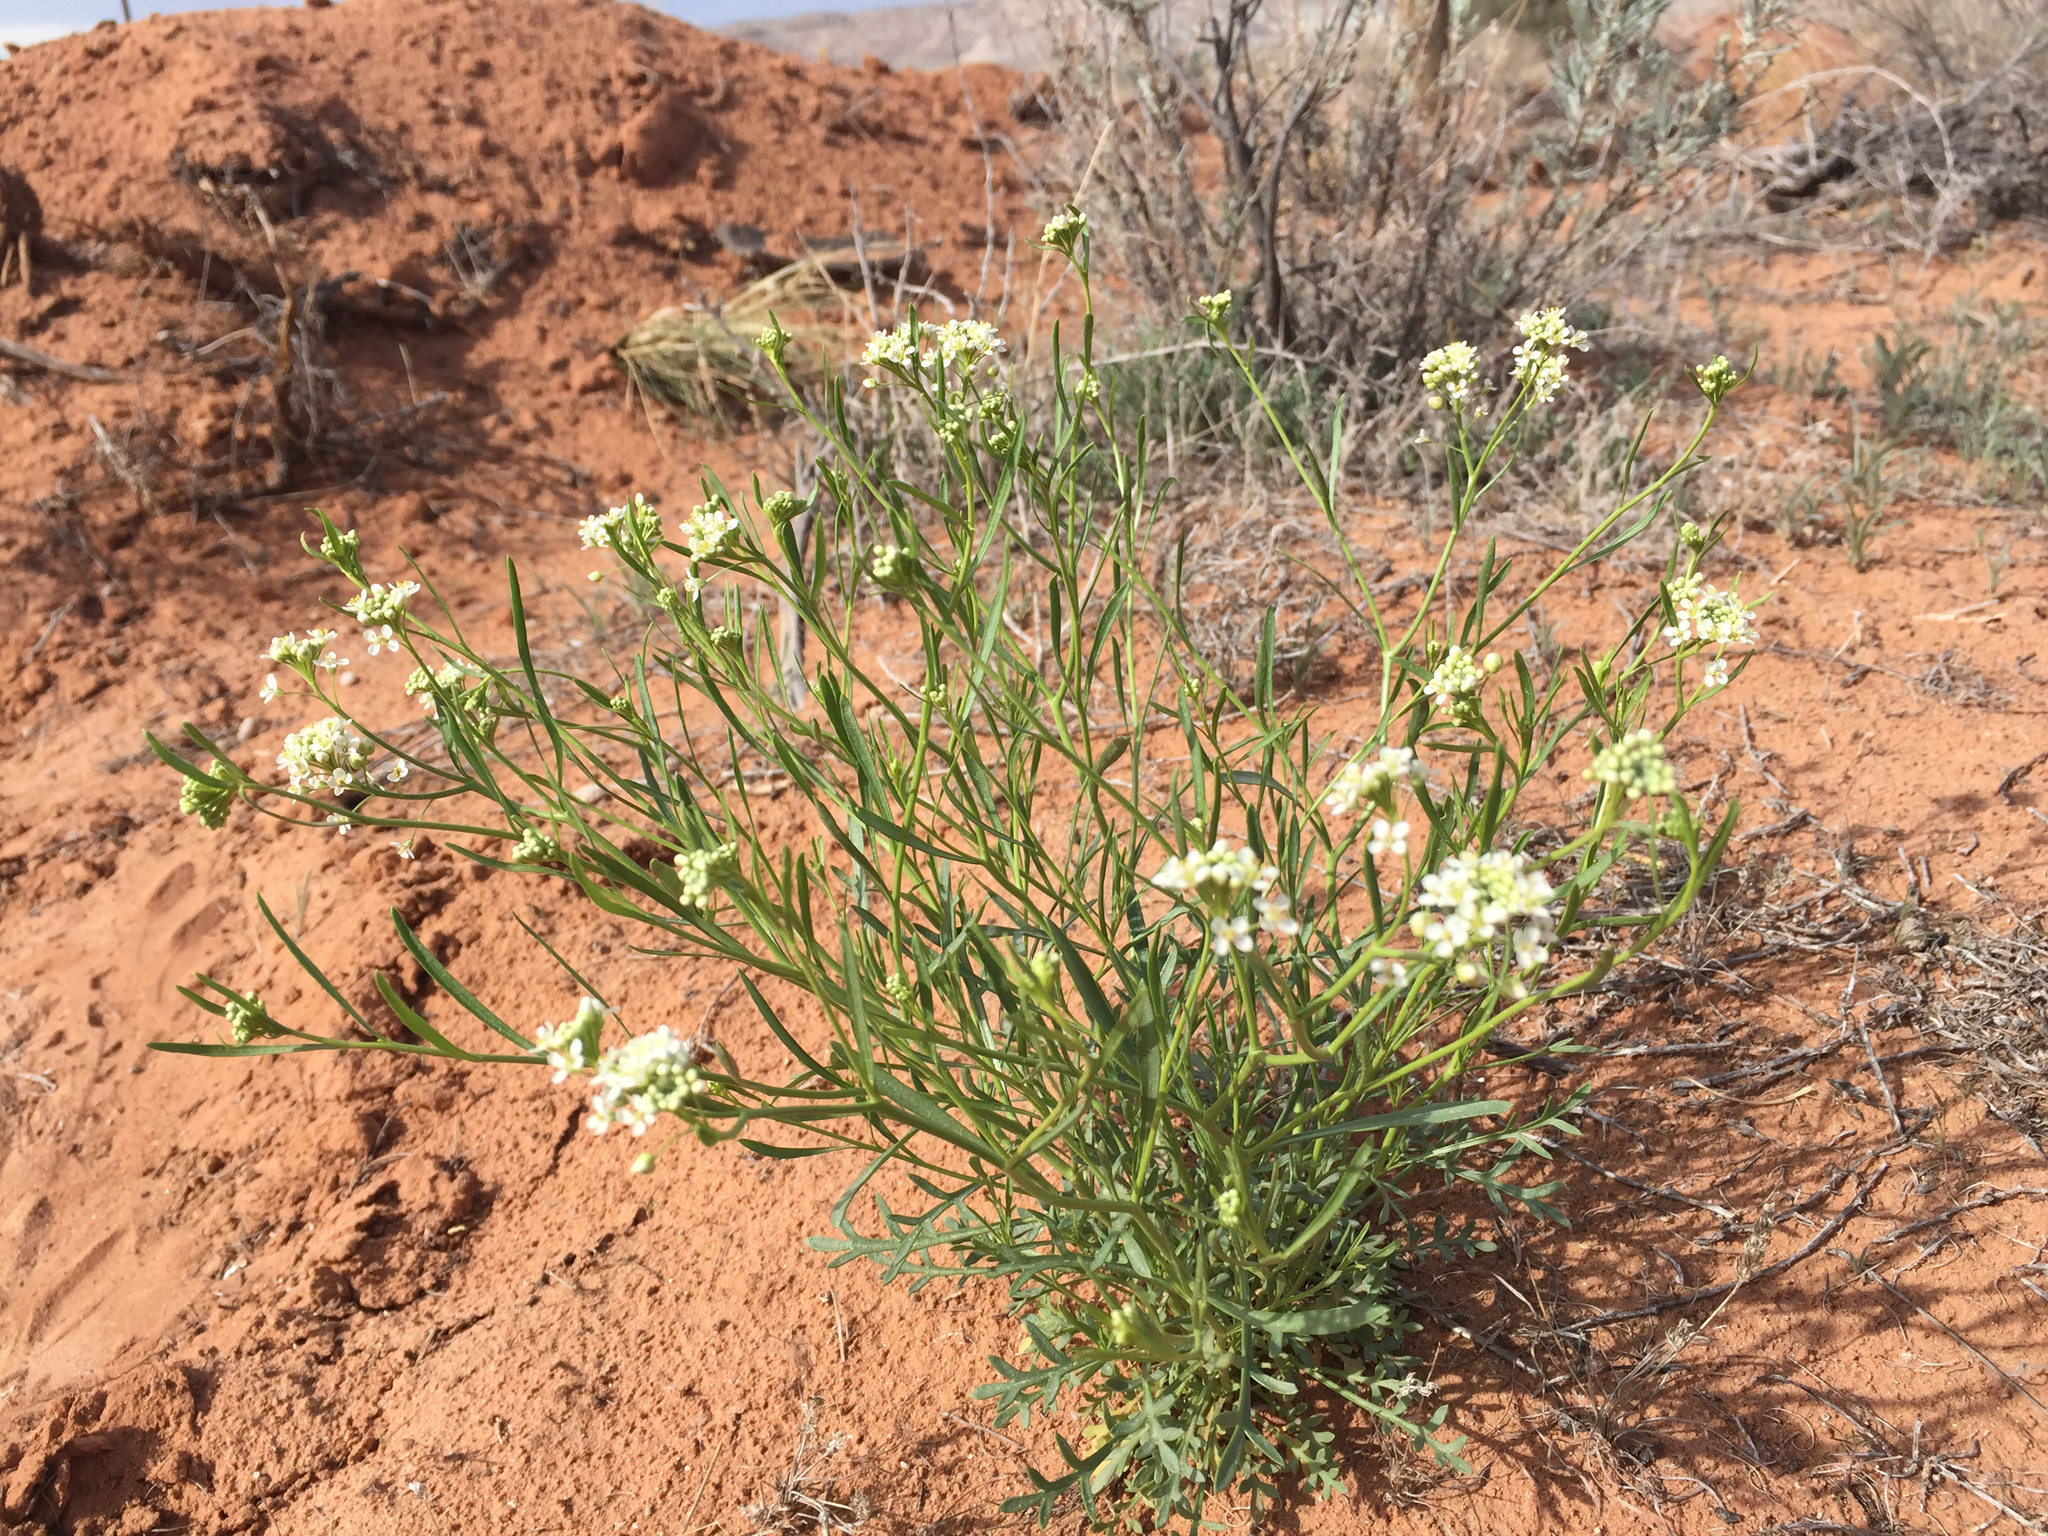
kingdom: Plantae
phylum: Tracheophyta
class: Magnoliopsida
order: Brassicales
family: Brassicaceae
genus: Lepidium
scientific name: Lepidium montanum
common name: Mountain pepperplant
